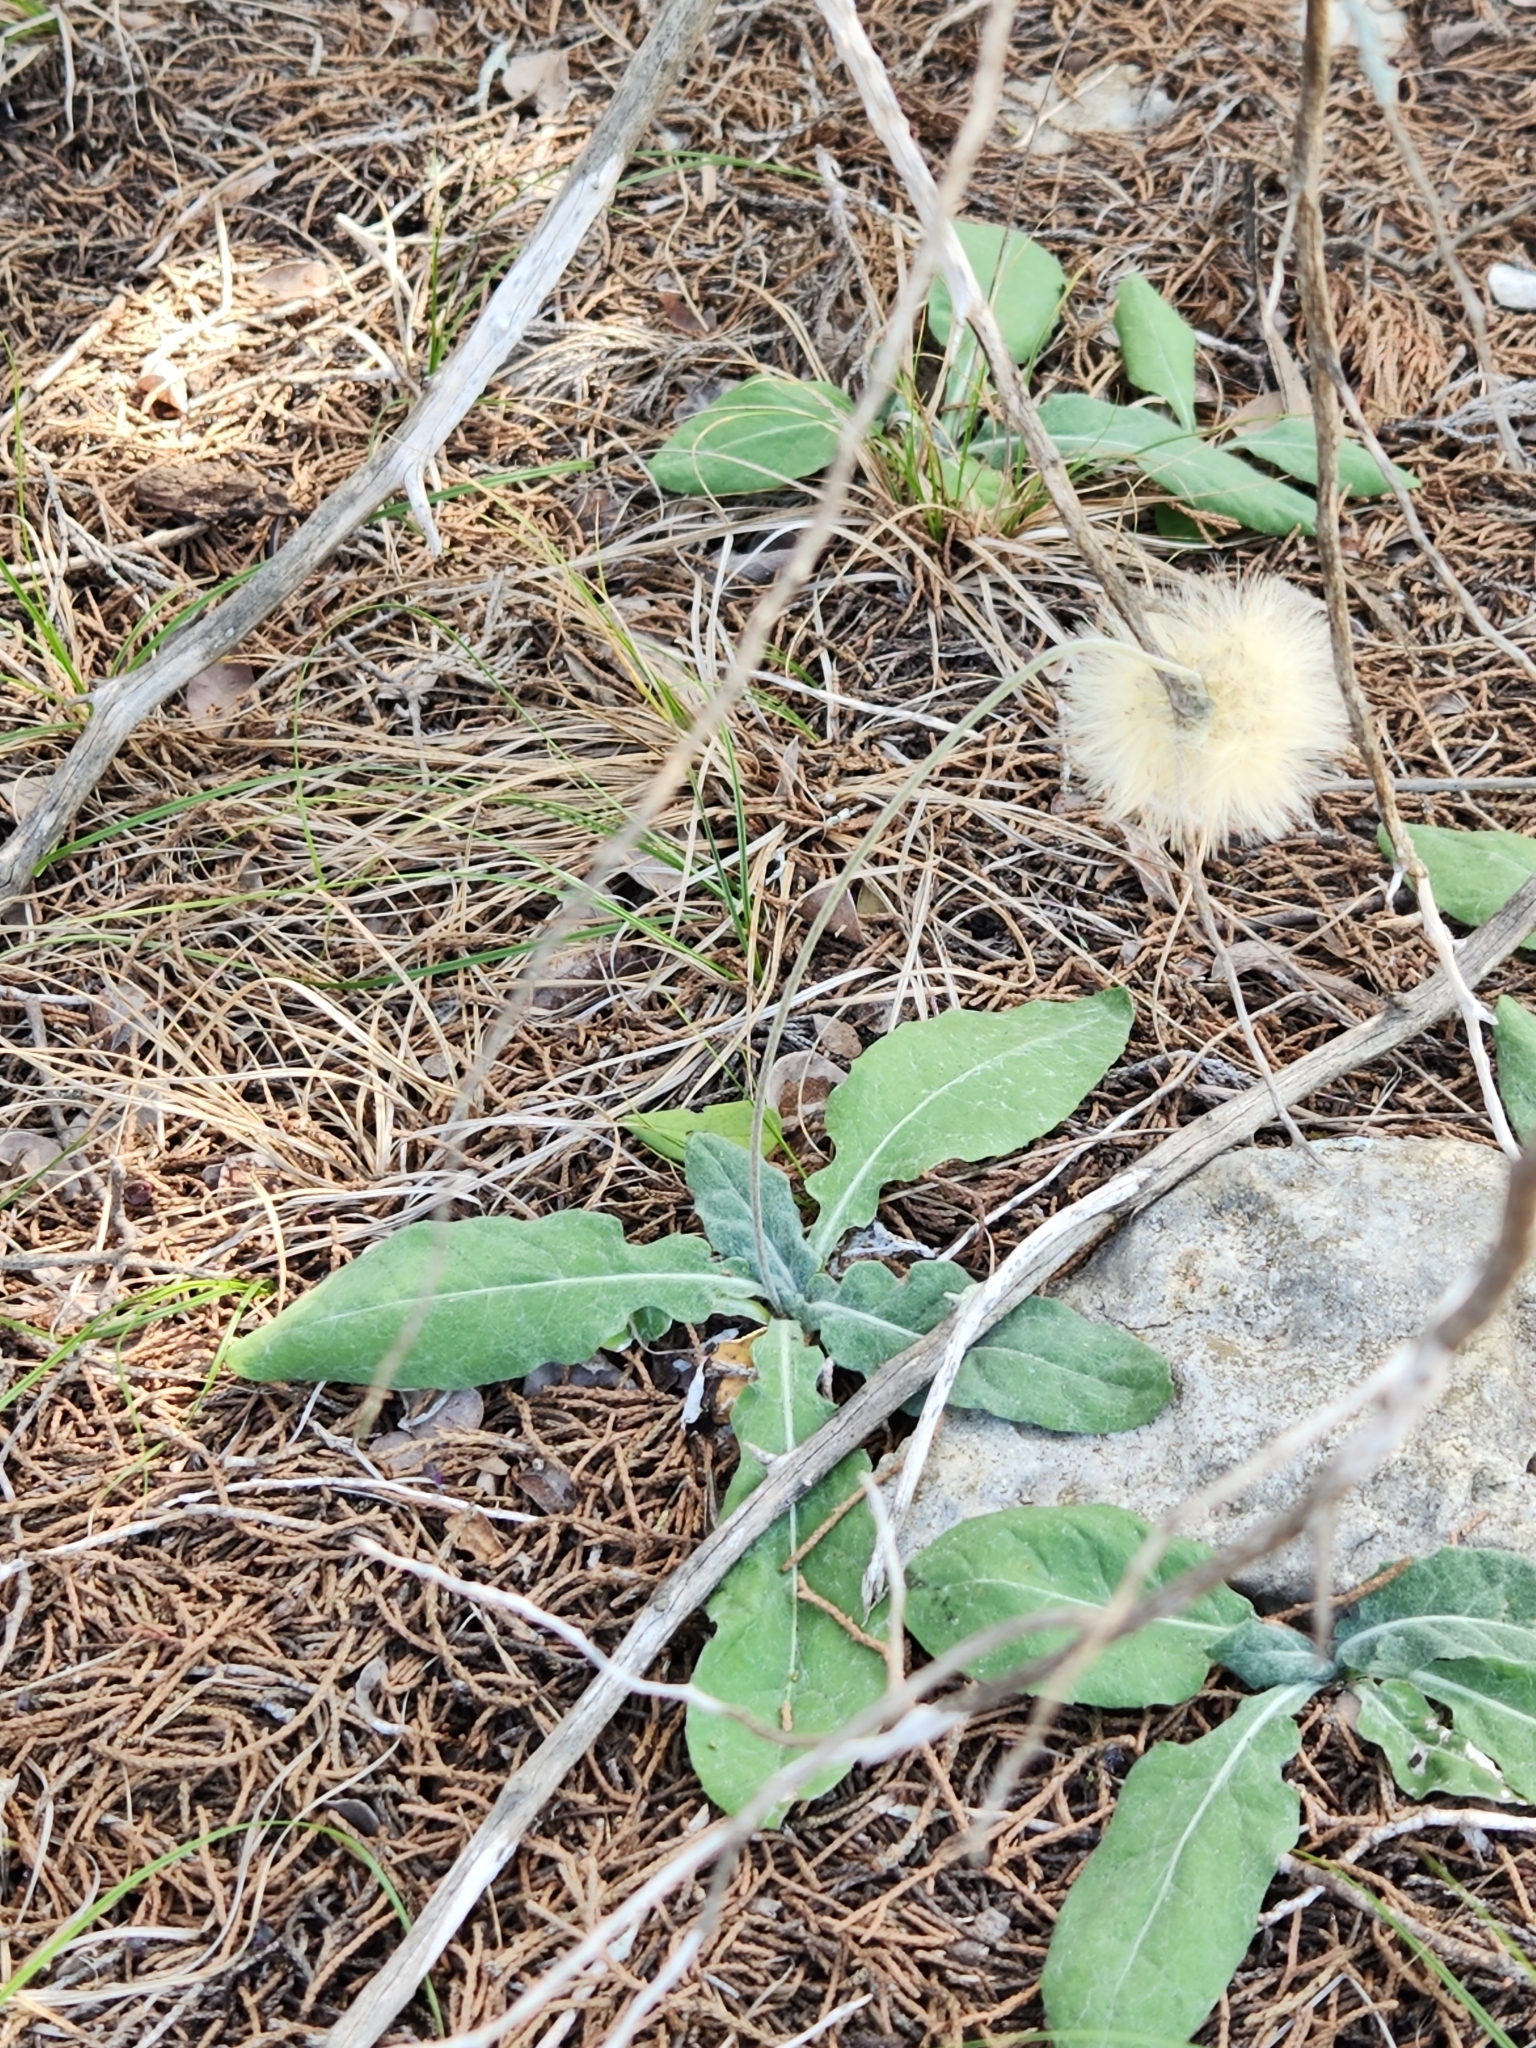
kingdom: Plantae
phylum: Tracheophyta
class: Magnoliopsida
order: Asterales
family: Asteraceae
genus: Chaptalia
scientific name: Chaptalia texana
